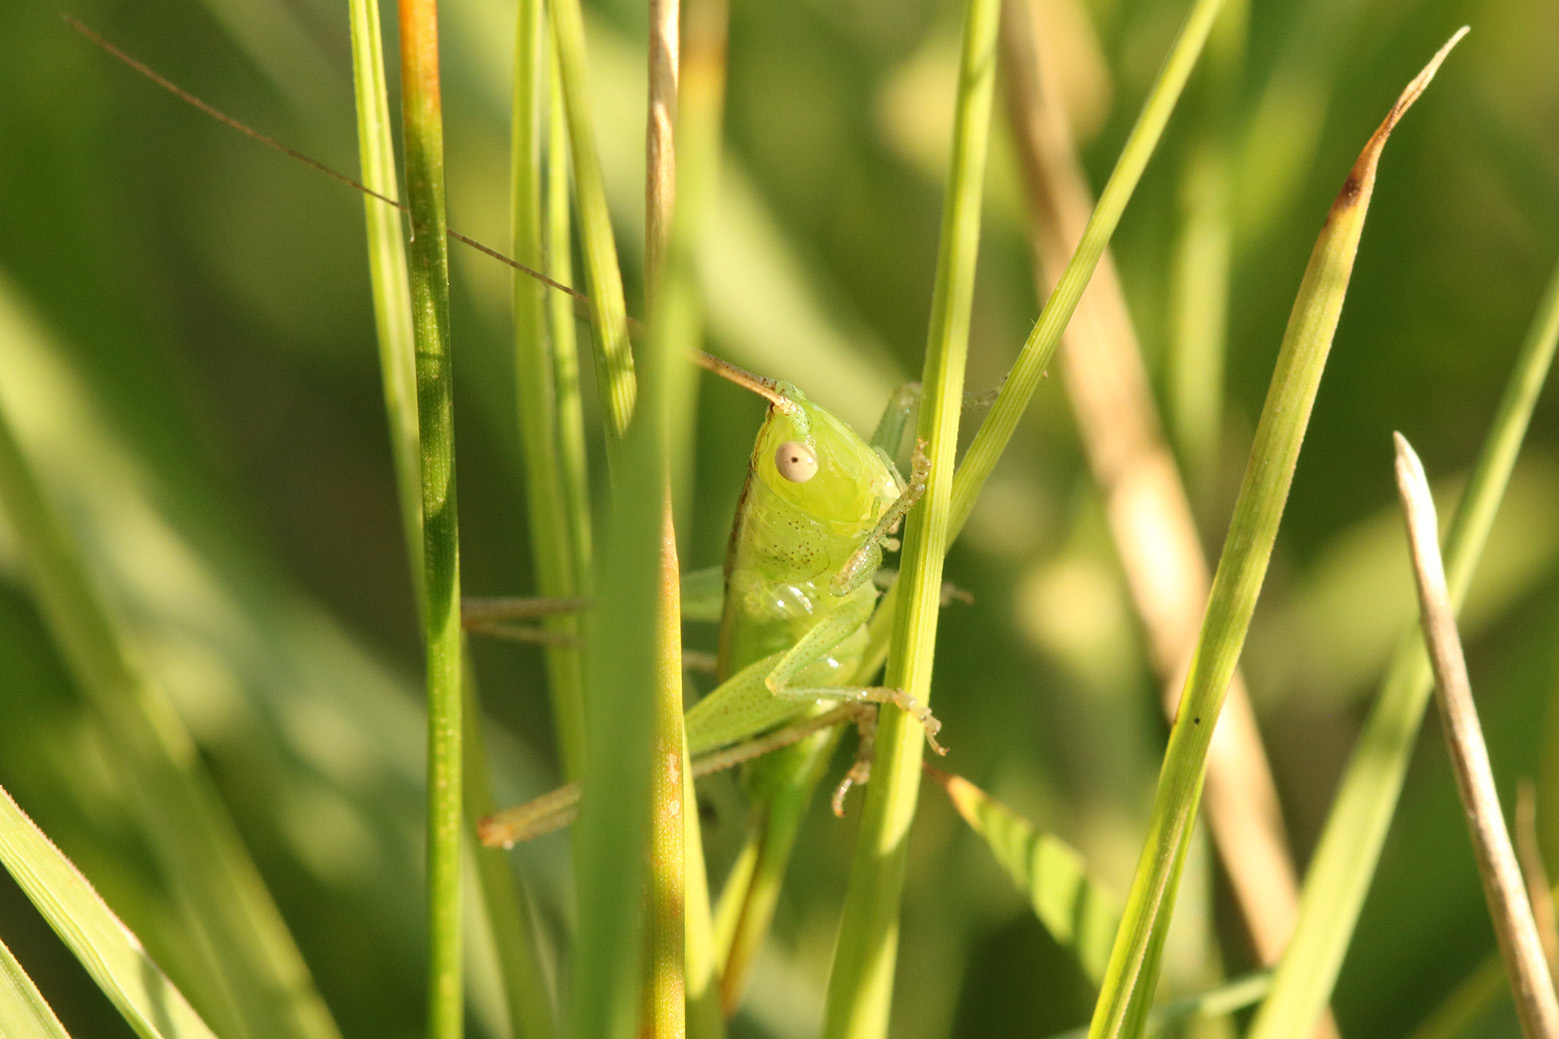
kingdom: Animalia
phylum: Arthropoda
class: Insecta
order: Orthoptera
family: Tettigoniidae
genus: Conocephalus
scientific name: Conocephalus longipes
